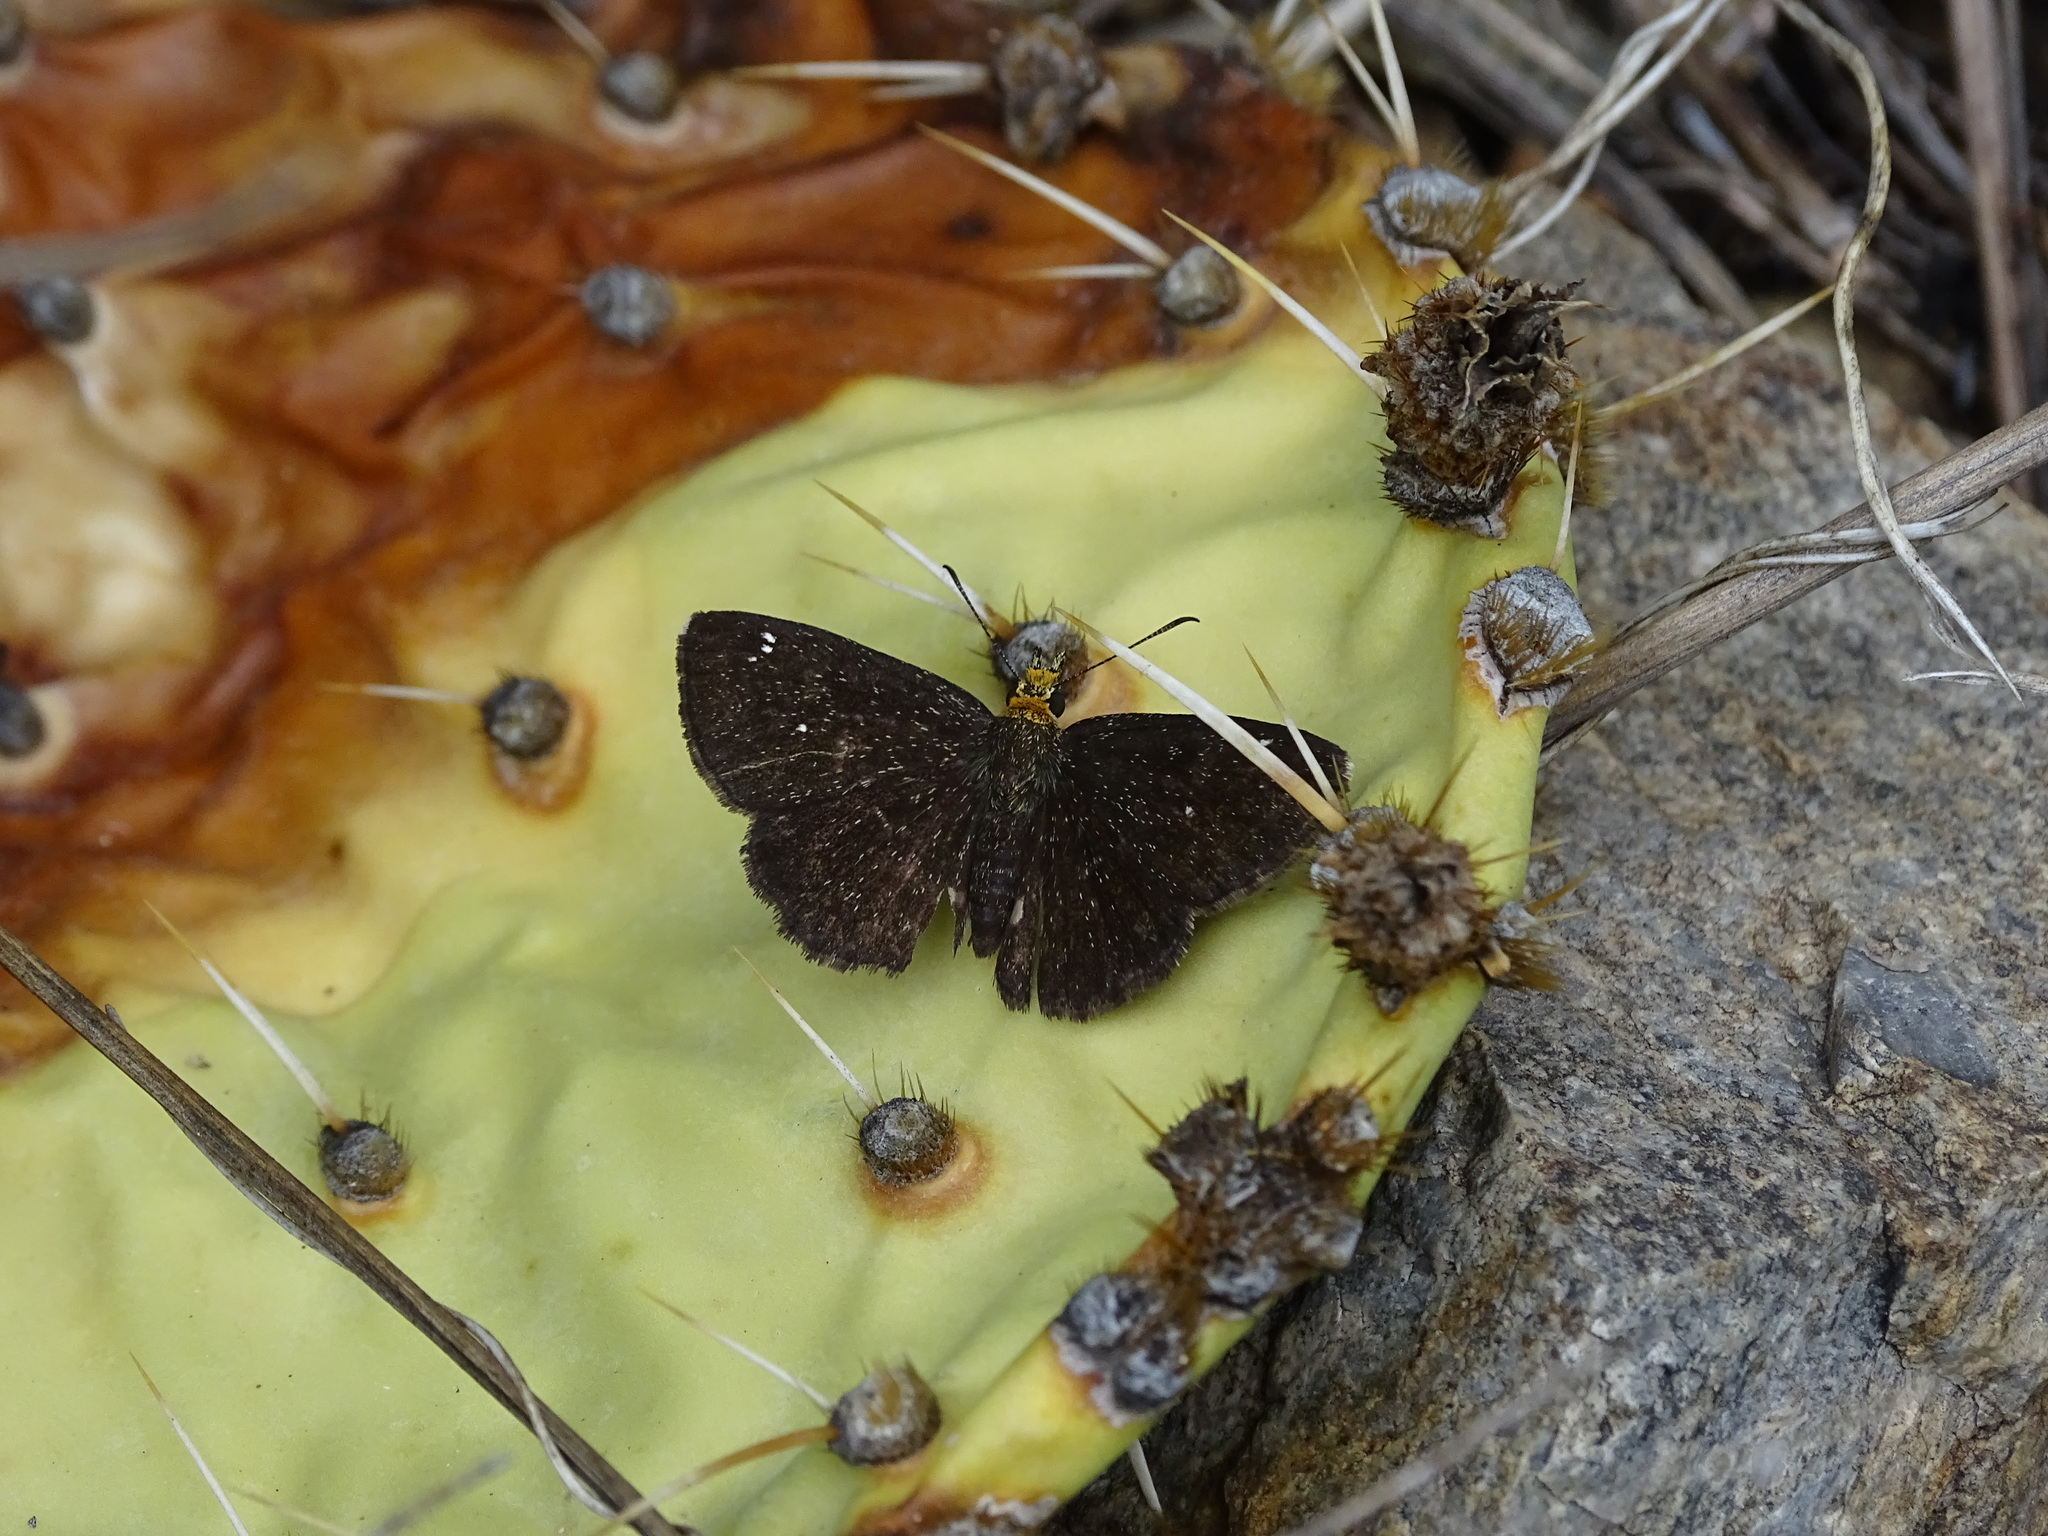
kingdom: Animalia
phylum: Arthropoda
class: Insecta
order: Lepidoptera
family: Hesperiidae
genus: Staphylus
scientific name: Staphylus ceos
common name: Golden-headed scallopwing
